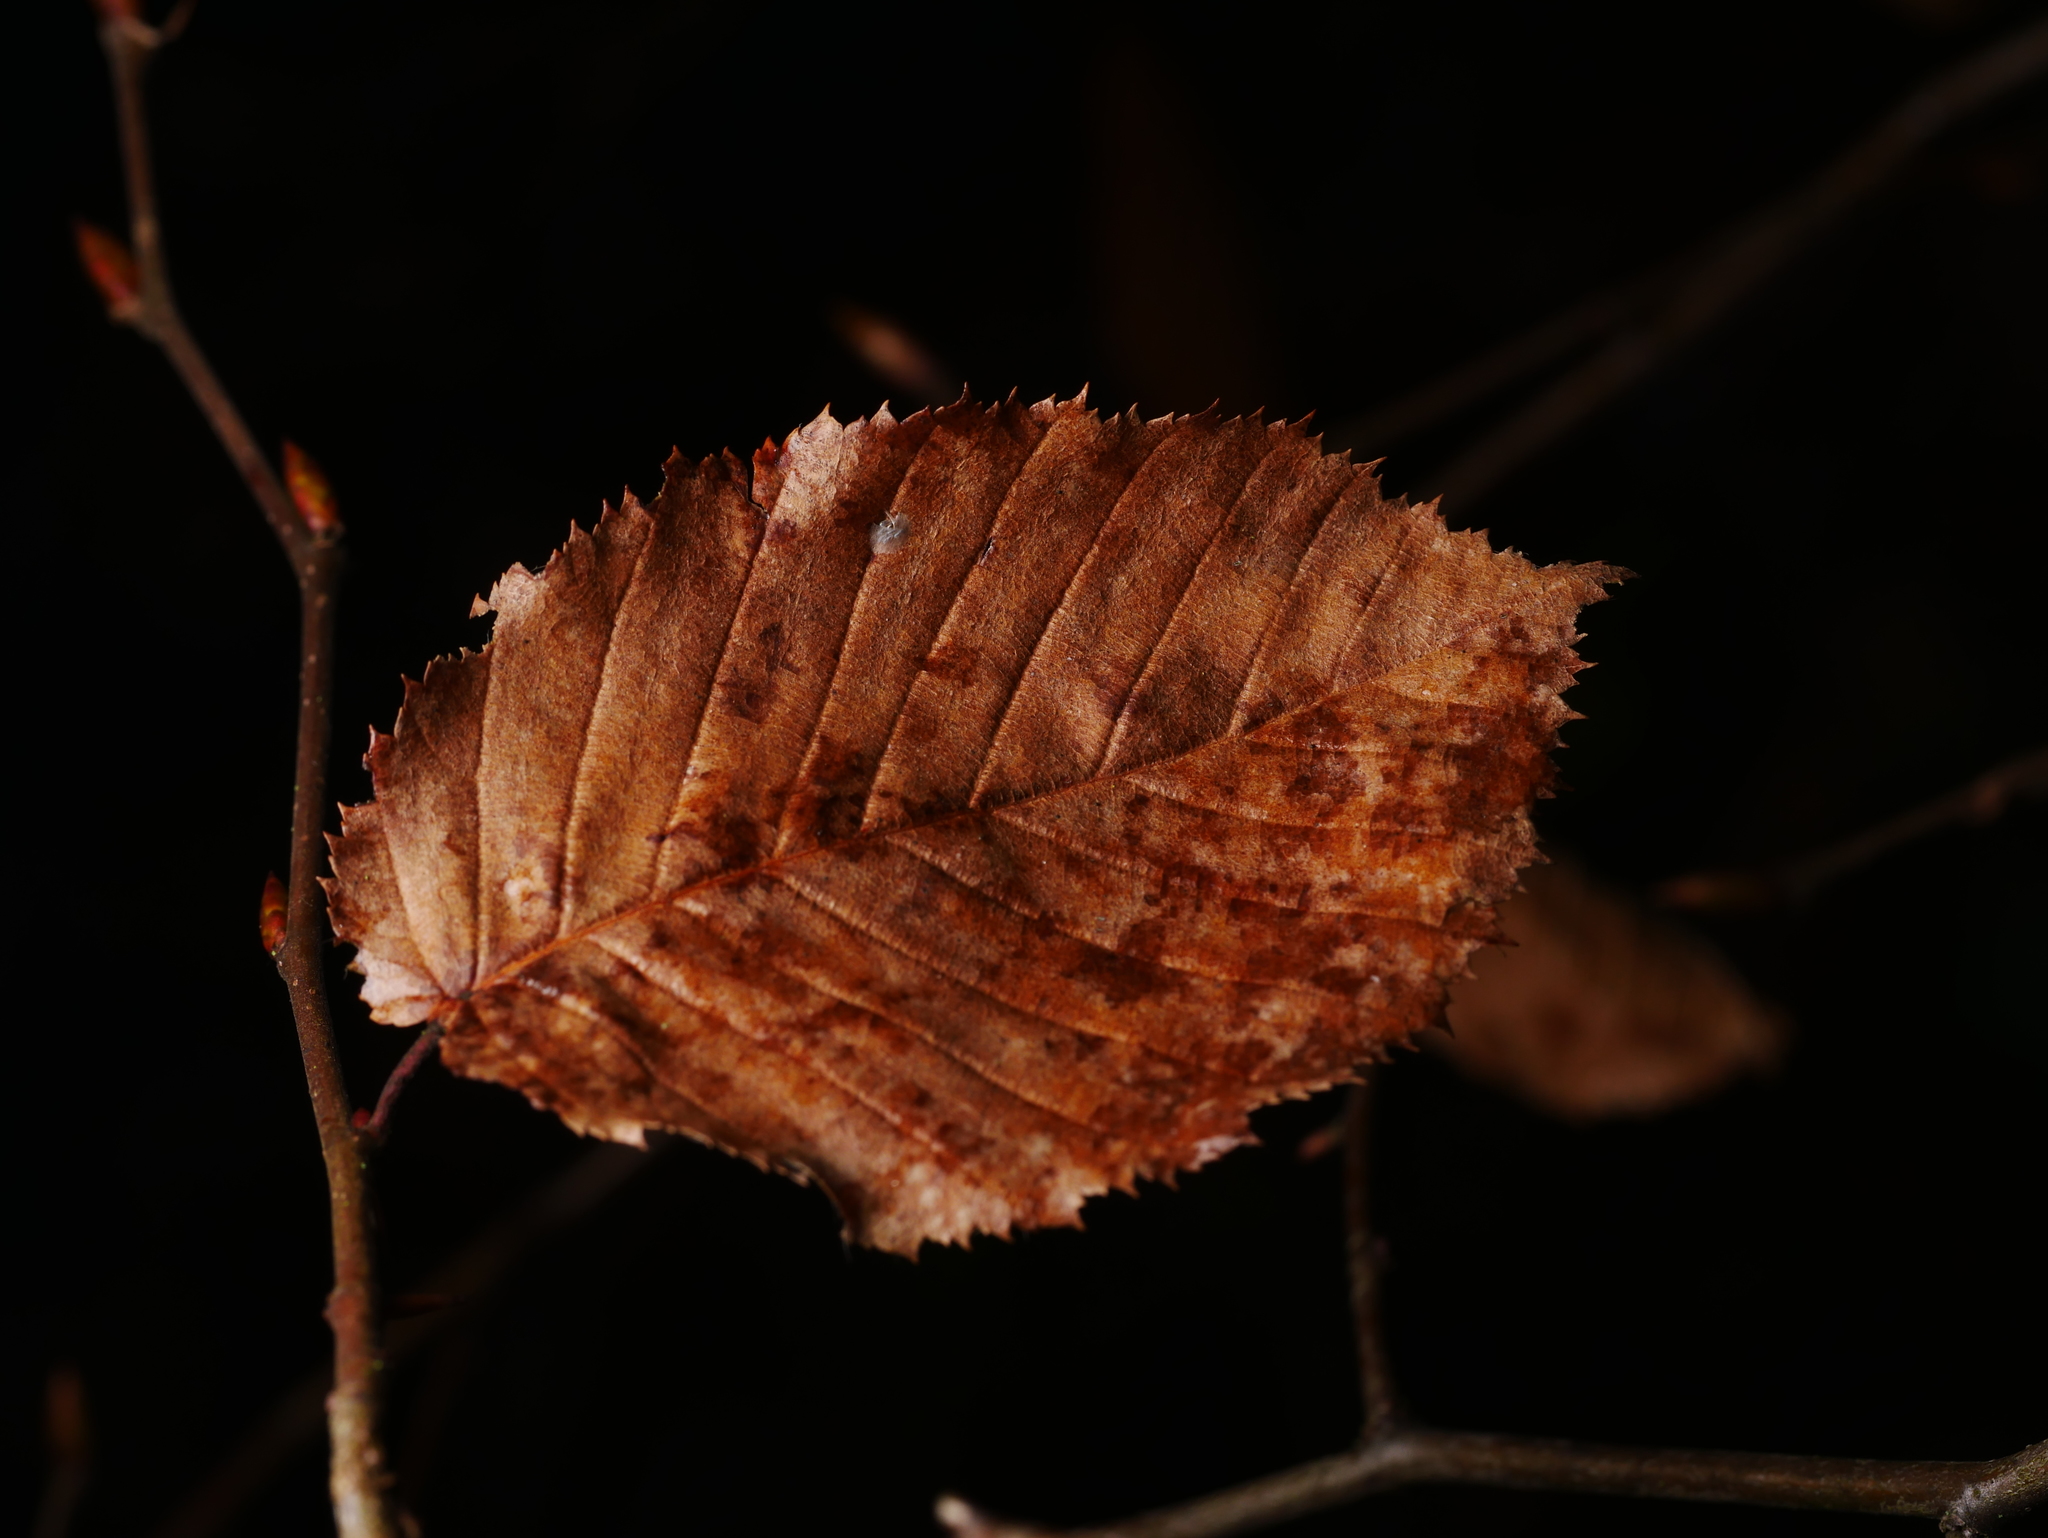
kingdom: Plantae
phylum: Tracheophyta
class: Magnoliopsida
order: Fagales
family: Betulaceae
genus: Carpinus
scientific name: Carpinus betulus
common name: Hornbeam
